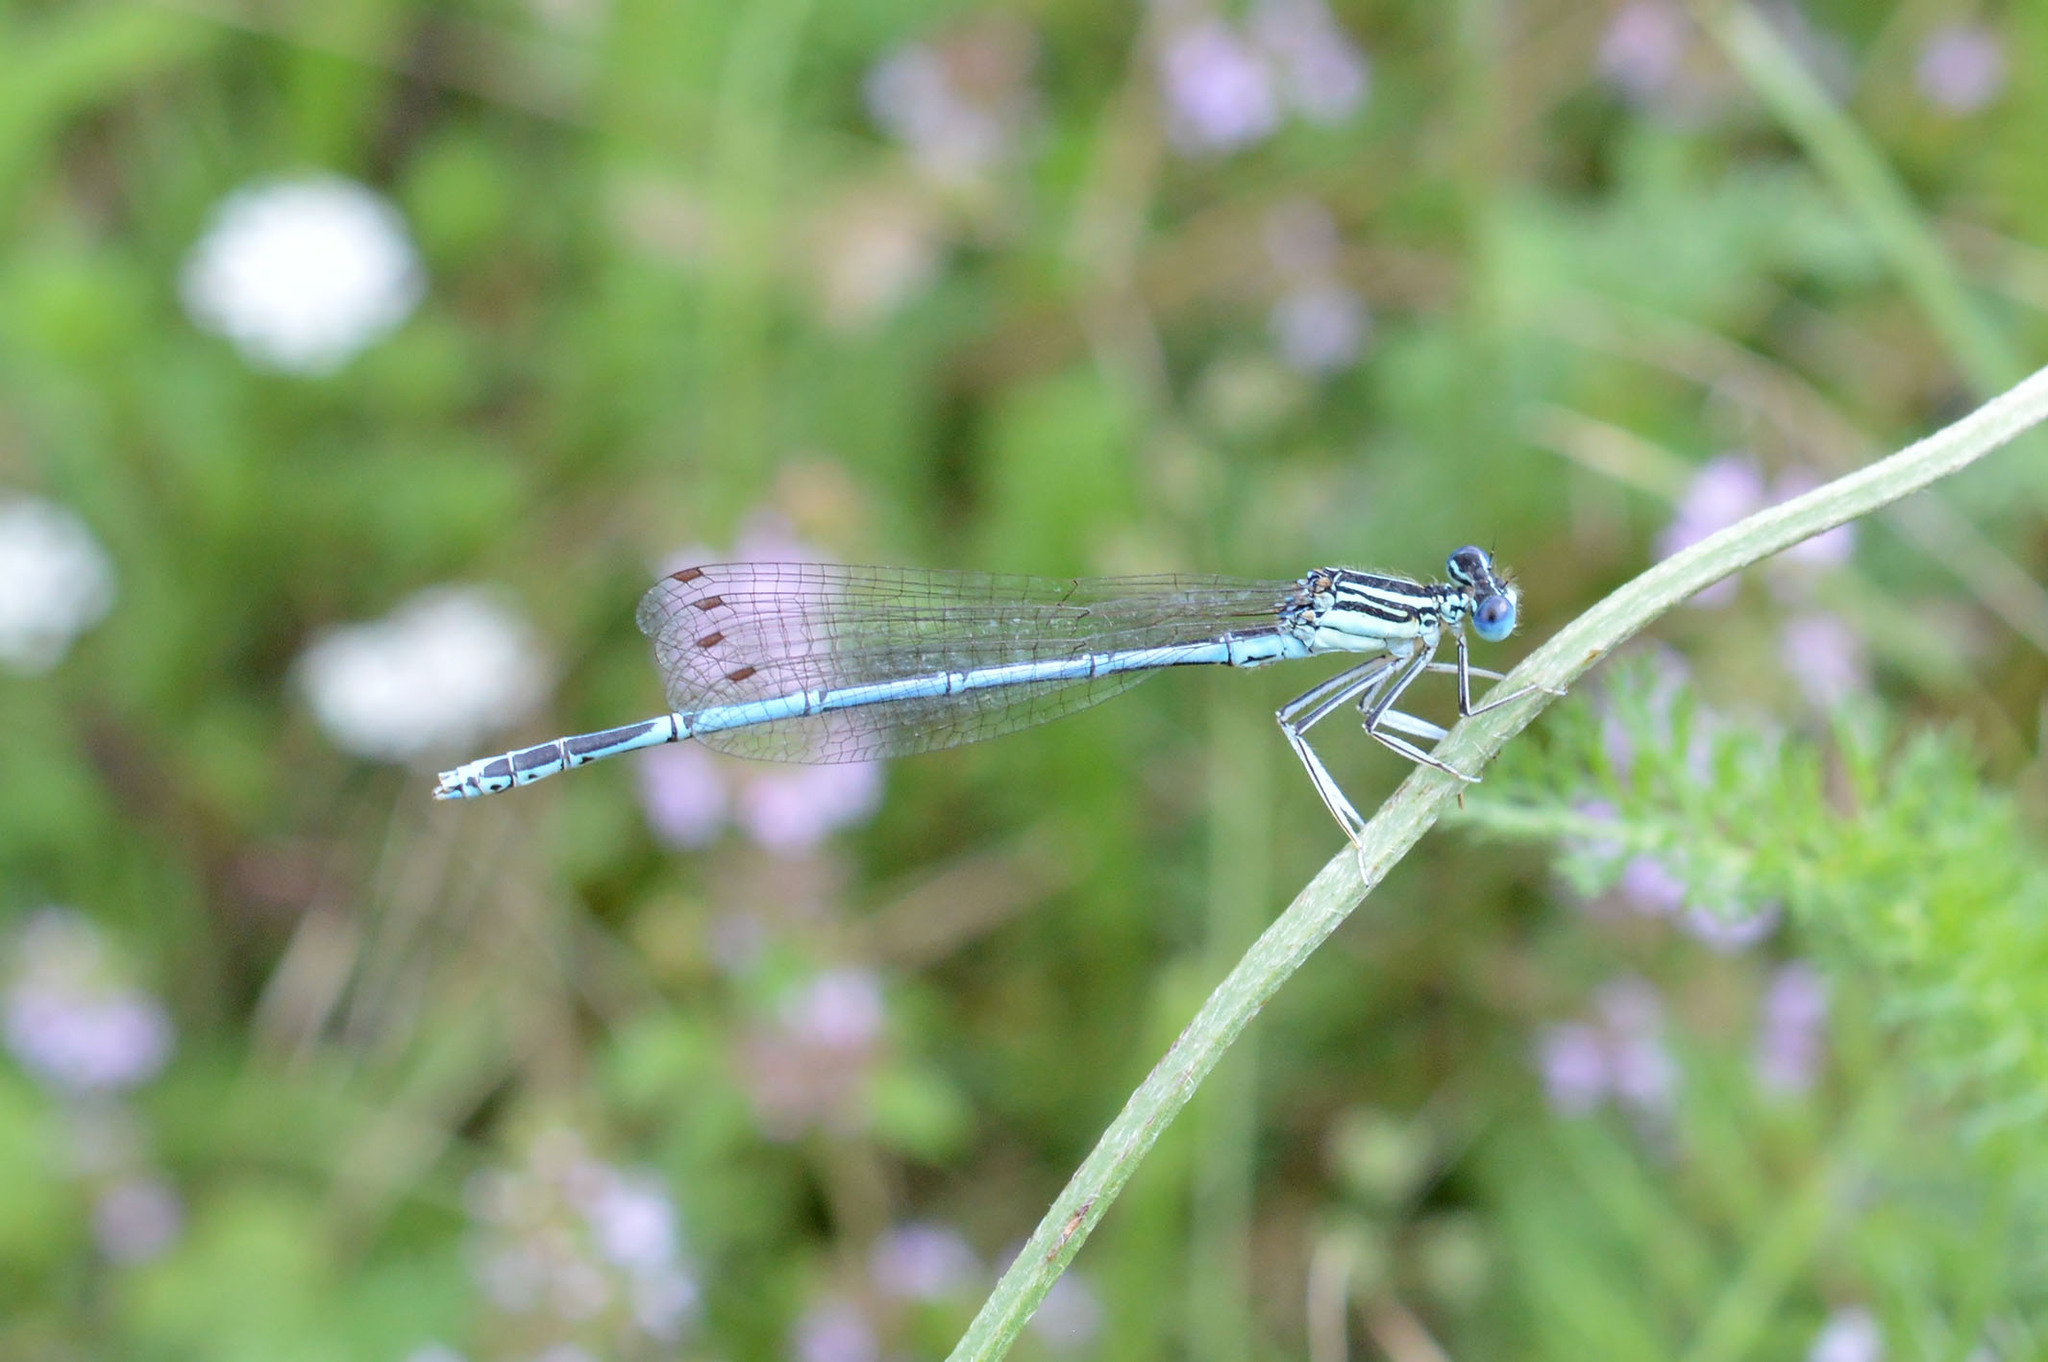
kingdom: Animalia
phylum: Arthropoda
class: Insecta
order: Odonata
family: Platycnemididae
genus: Platycnemis
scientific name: Platycnemis pennipes
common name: White-legged damselfly
